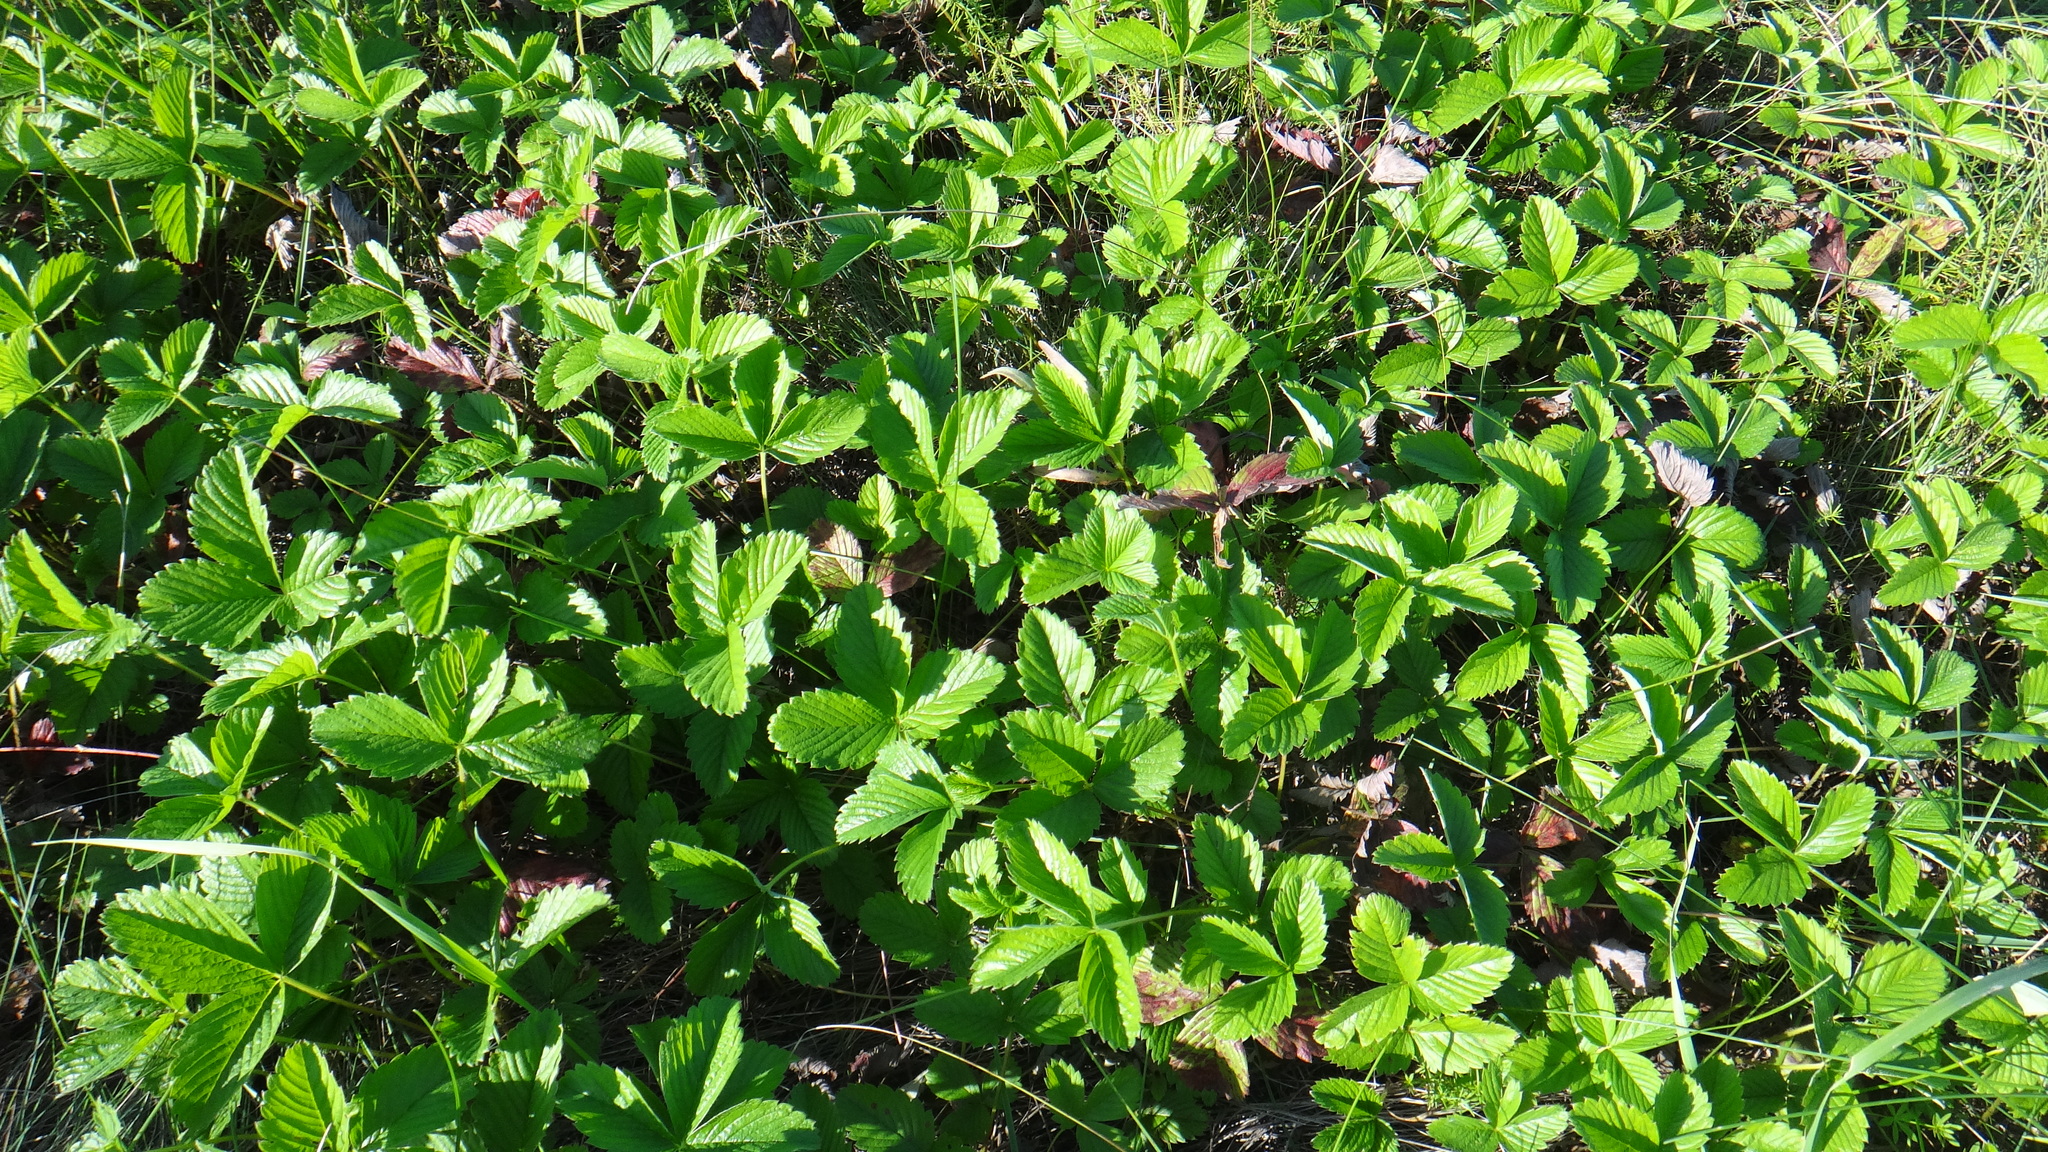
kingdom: Plantae
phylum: Tracheophyta
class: Magnoliopsida
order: Rosales
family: Rosaceae
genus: Fragaria
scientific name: Fragaria viridis
